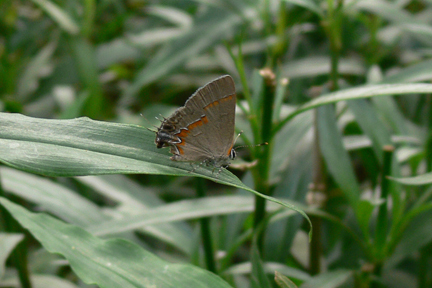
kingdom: Animalia
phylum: Arthropoda
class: Insecta
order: Lepidoptera
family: Lycaenidae
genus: Calycopis
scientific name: Calycopis cecrops
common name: Red-banded hairstreak
